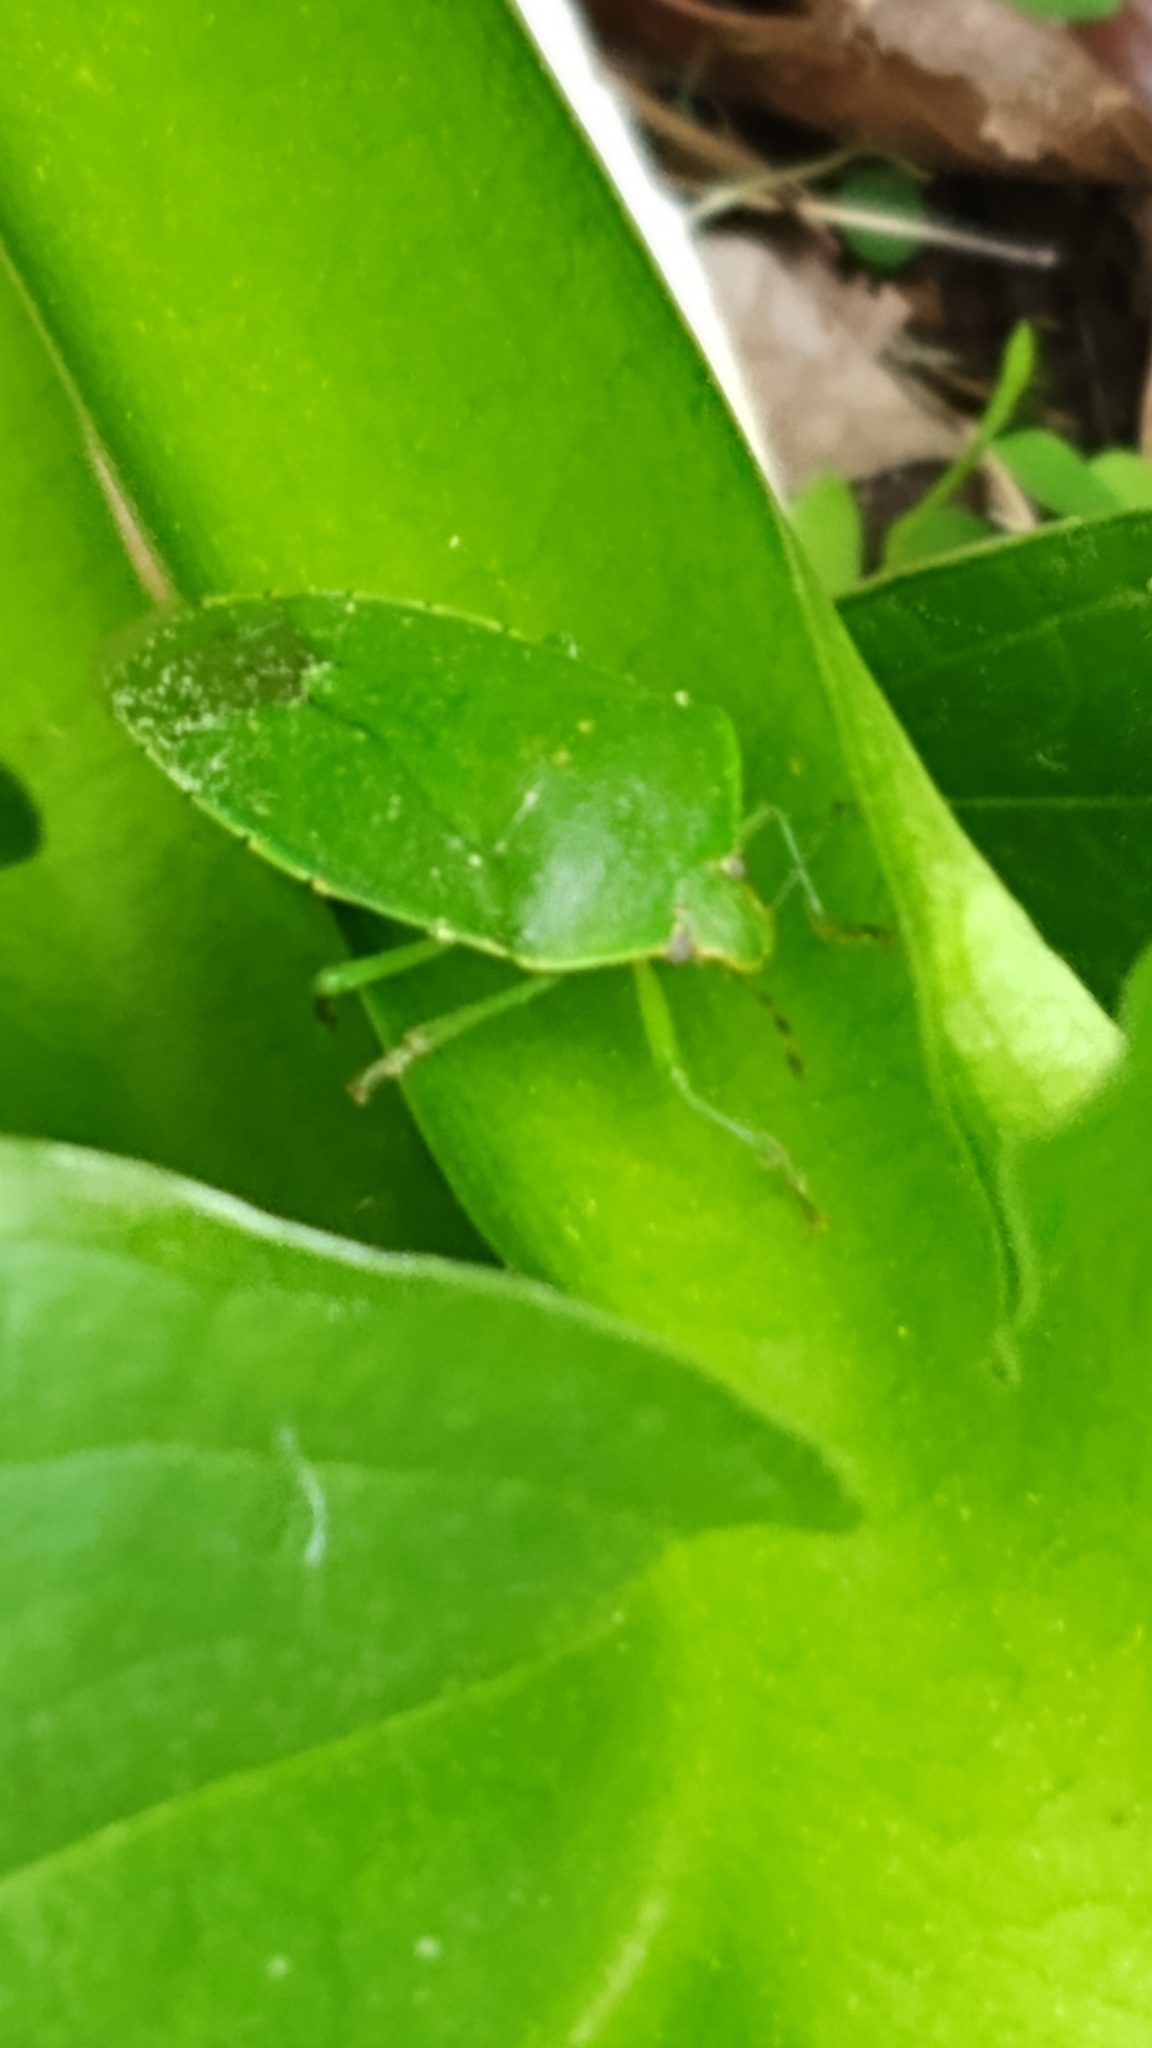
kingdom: Animalia
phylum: Arthropoda
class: Insecta
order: Hemiptera
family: Pentatomidae
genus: Chinavia
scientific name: Chinavia hilaris
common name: Green stink bug
